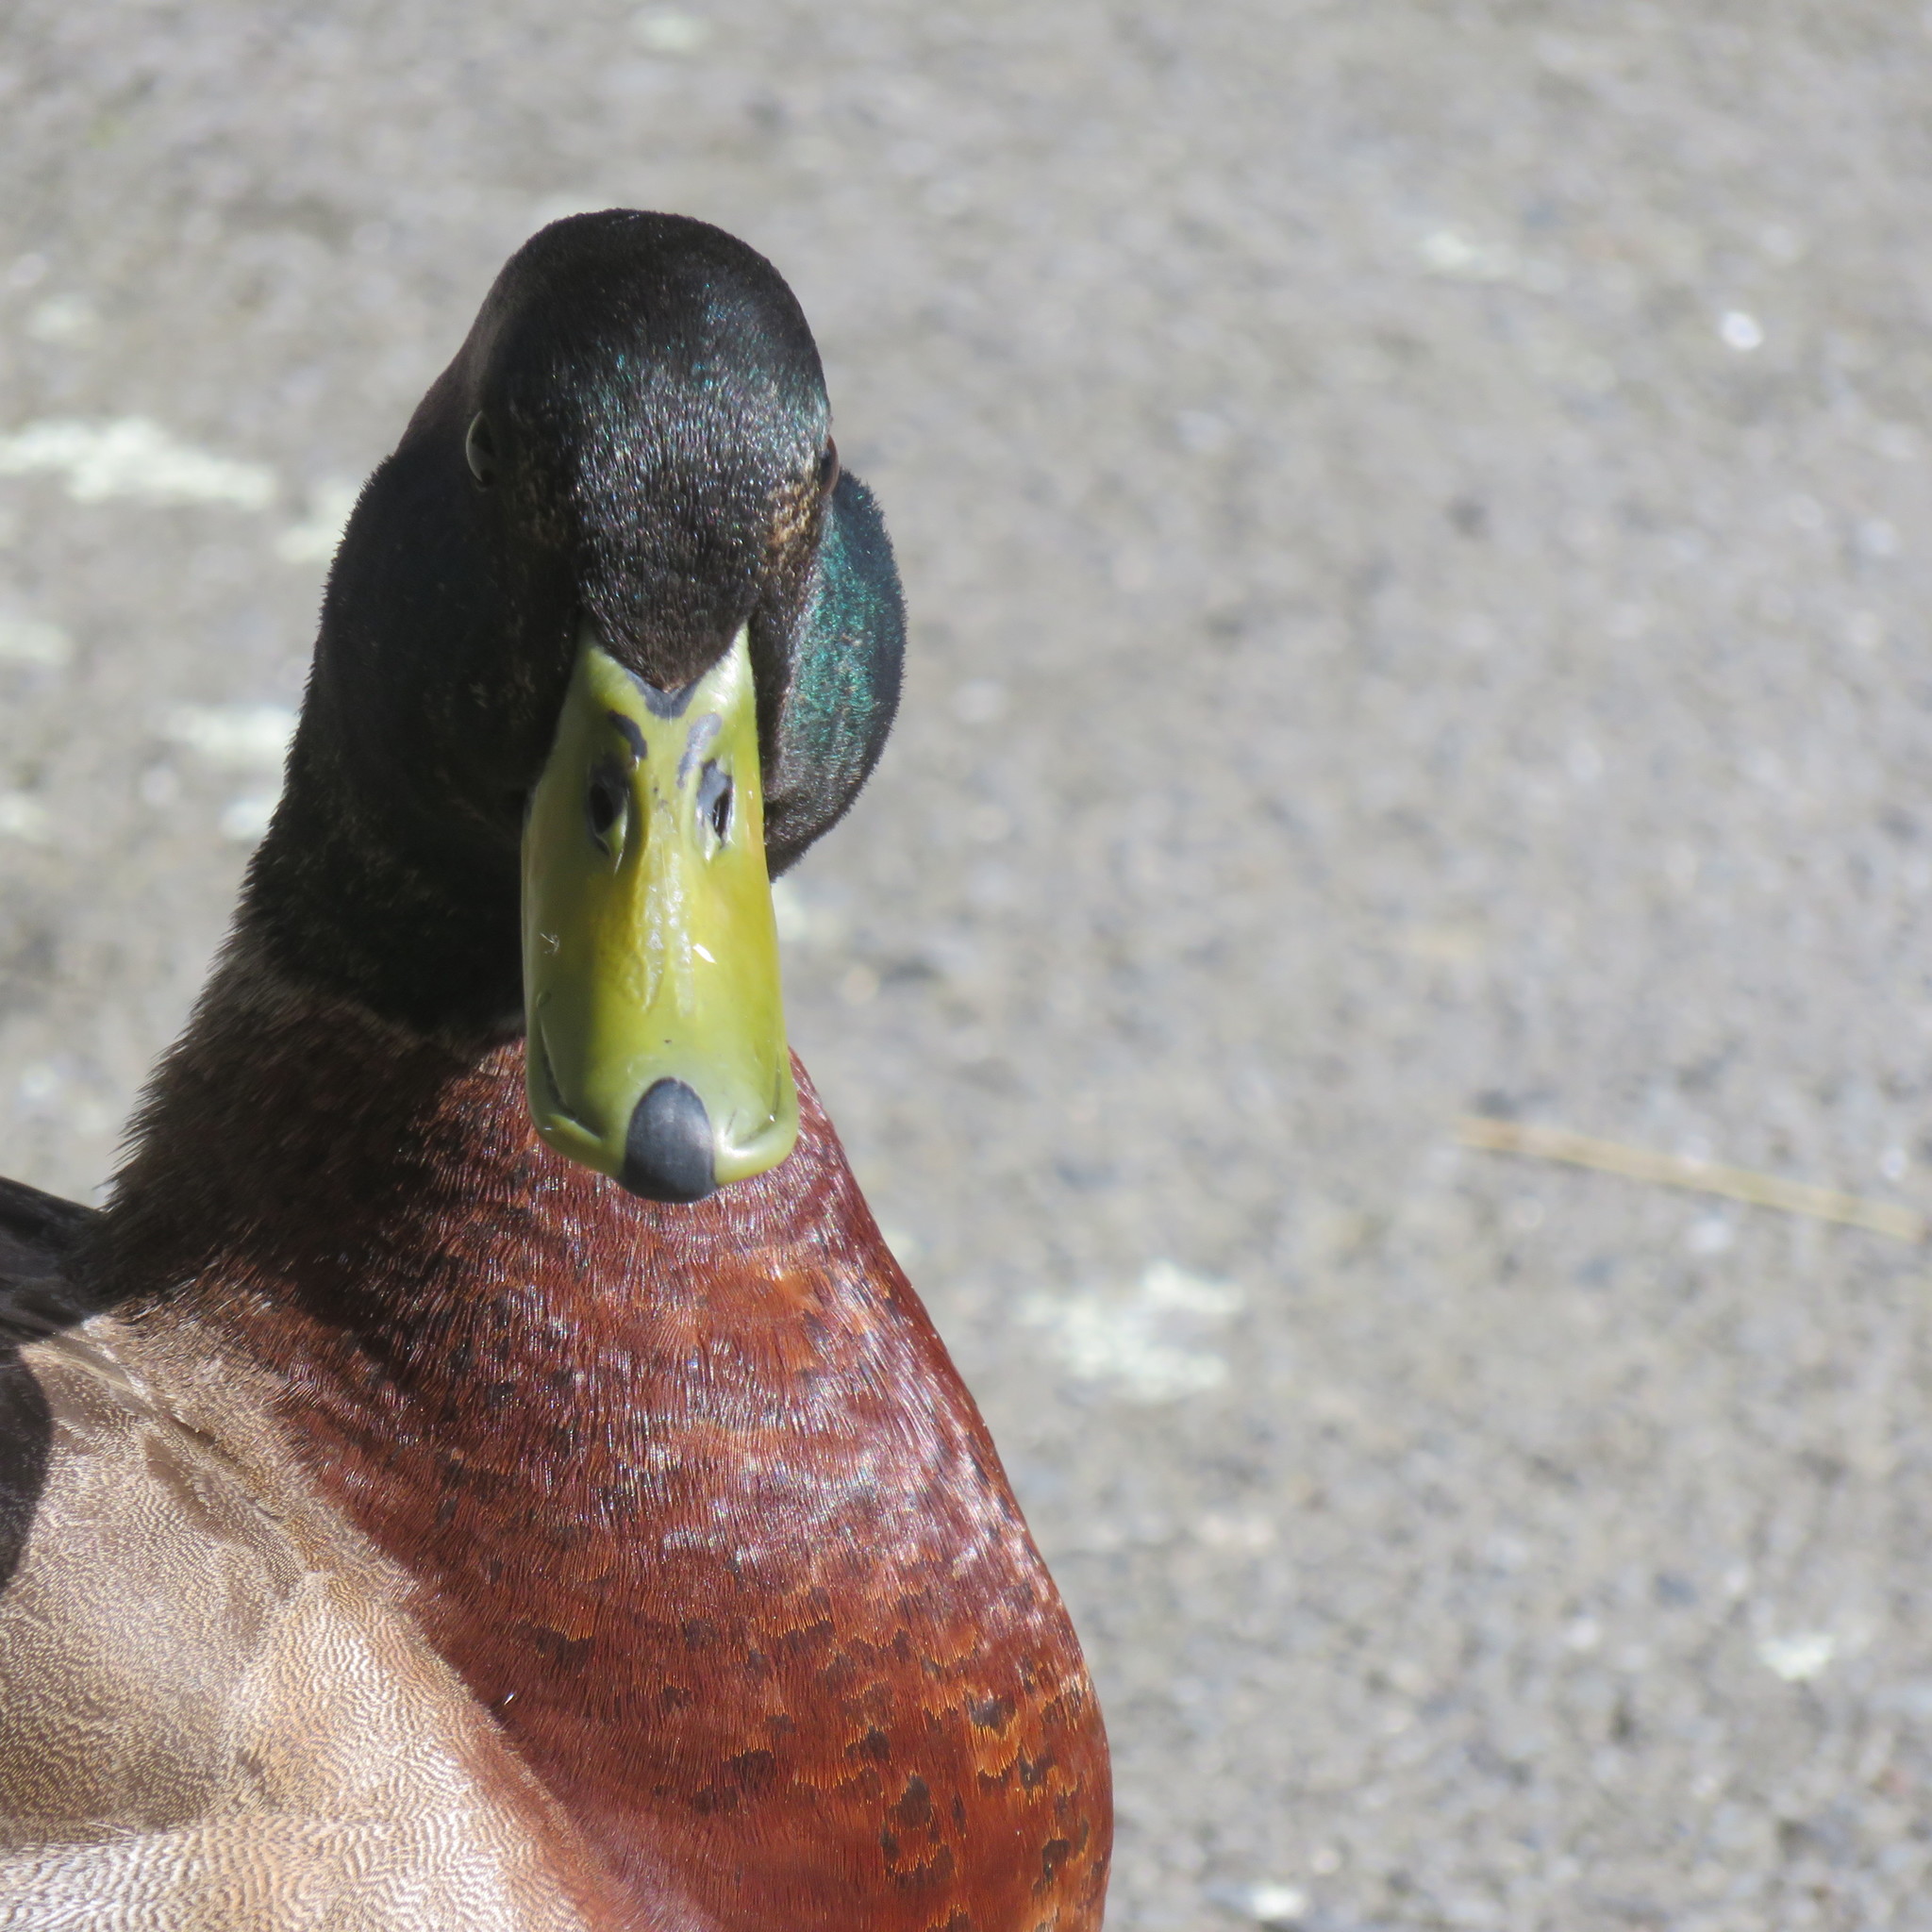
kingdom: Animalia
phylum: Chordata
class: Aves
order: Anseriformes
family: Anatidae
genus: Anas
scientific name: Anas platyrhynchos
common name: Mallard
